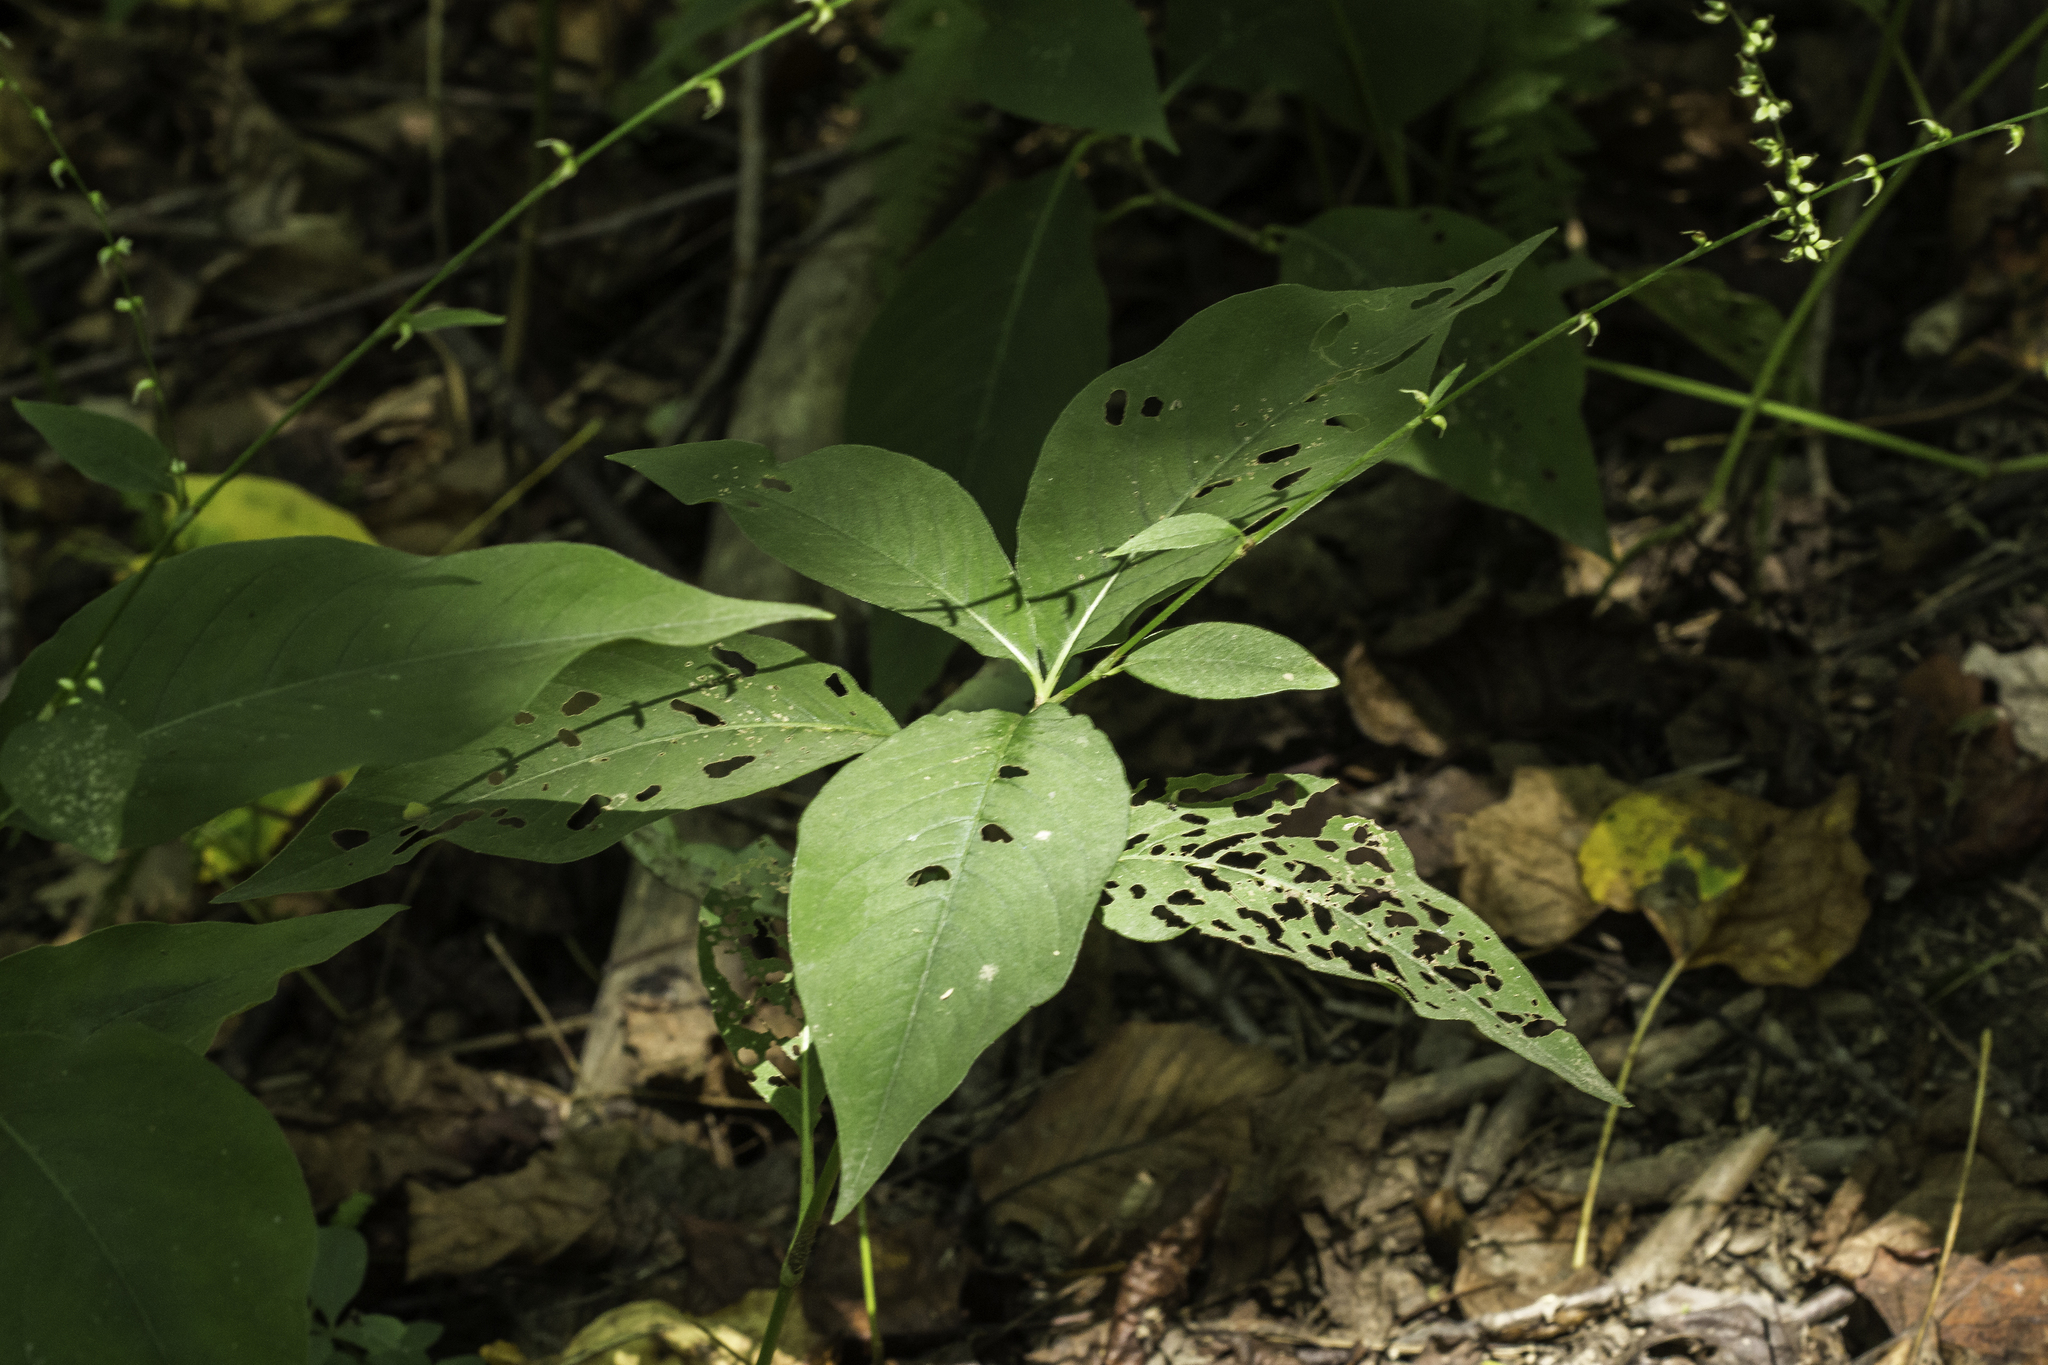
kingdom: Plantae
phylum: Tracheophyta
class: Magnoliopsida
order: Caryophyllales
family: Polygonaceae
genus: Persicaria
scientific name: Persicaria virginiana
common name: Jumpseed
